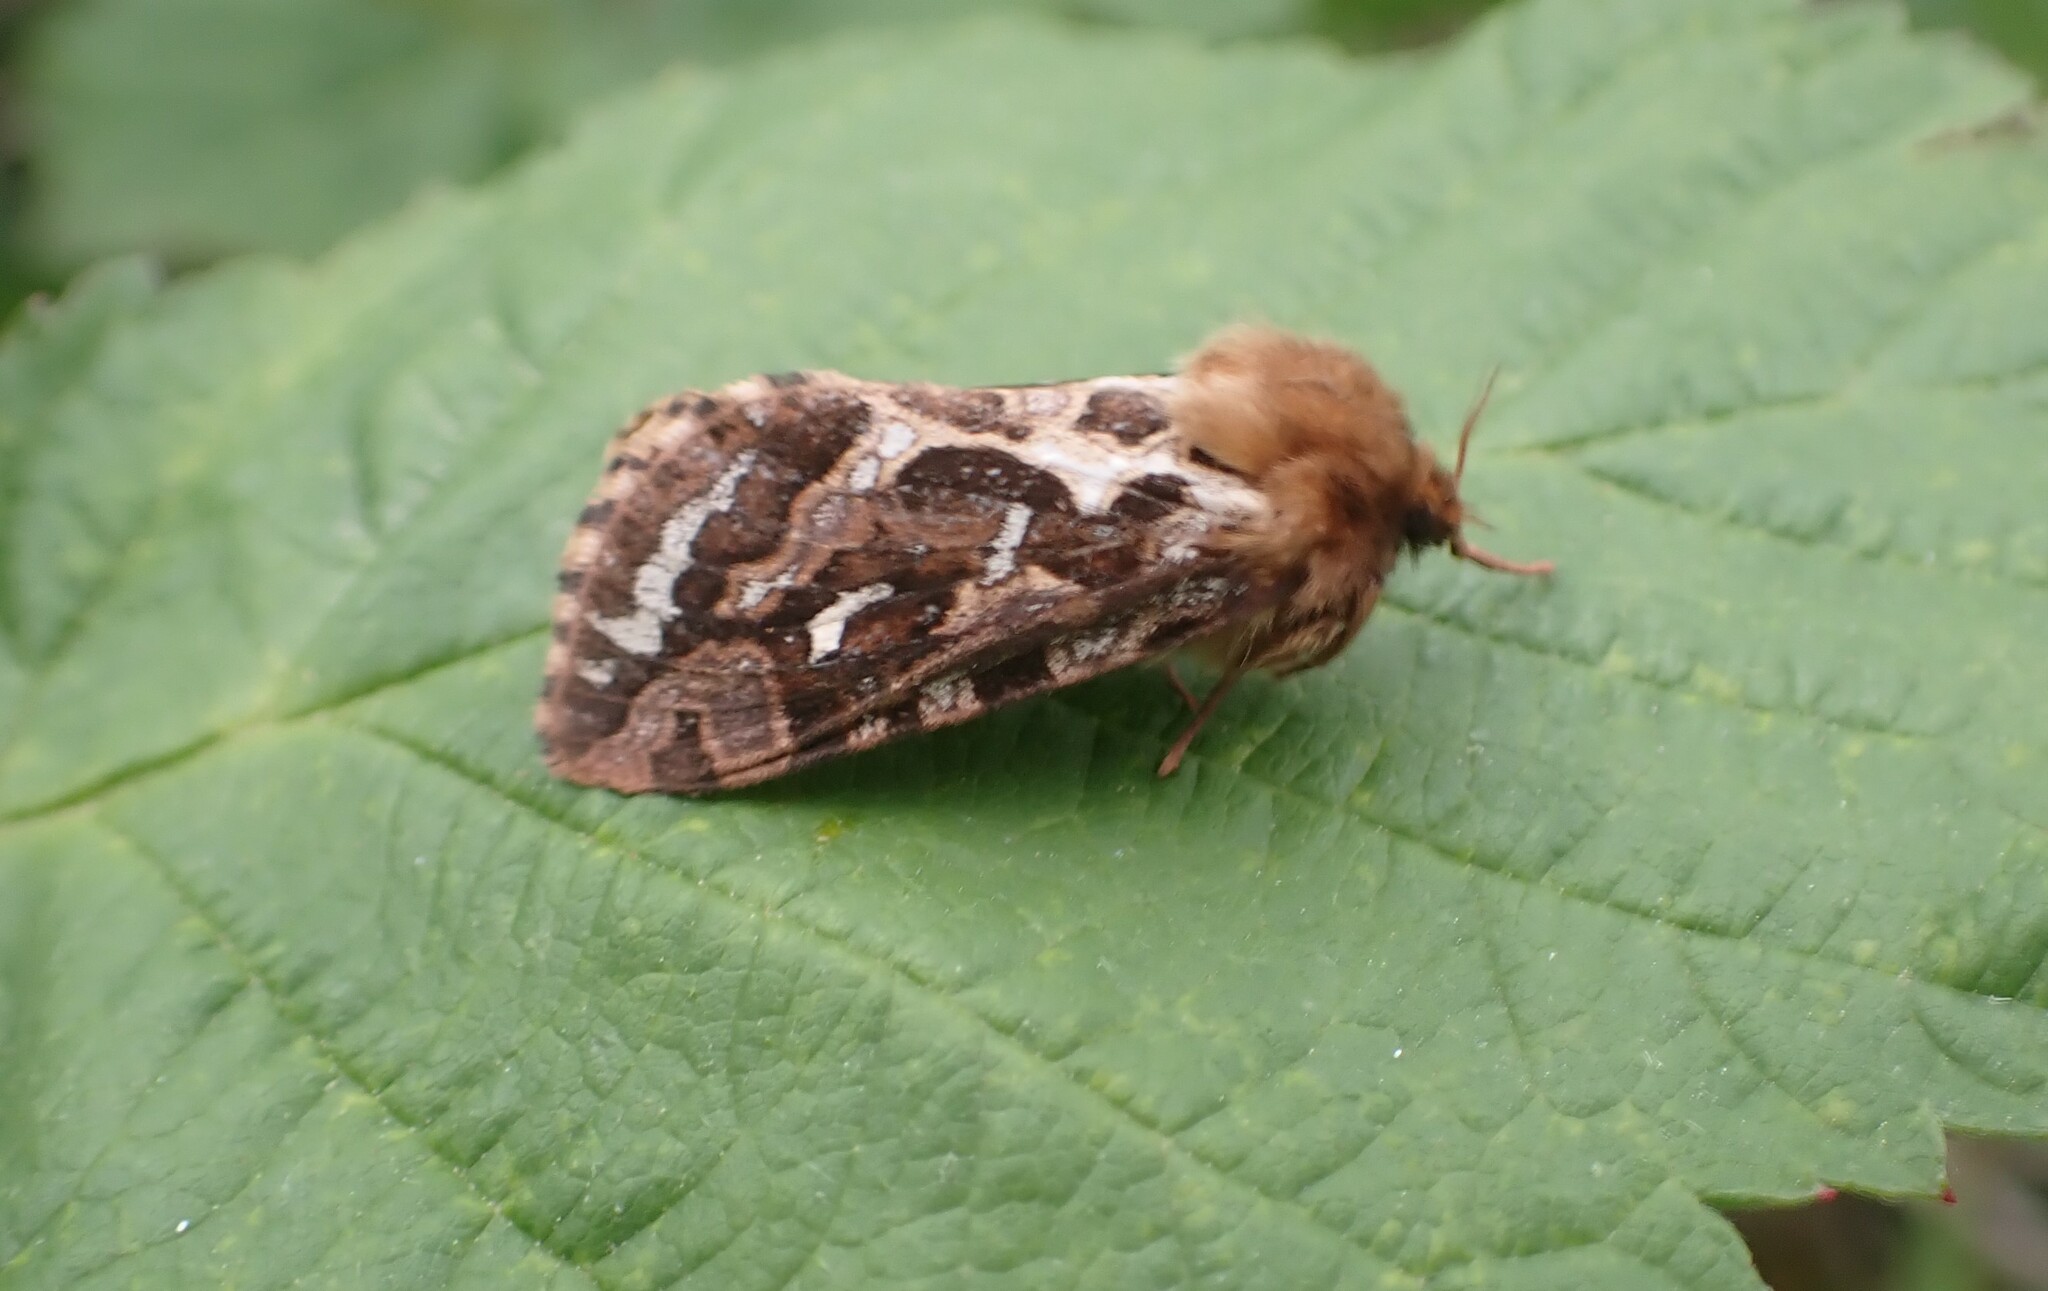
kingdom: Animalia
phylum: Arthropoda
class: Insecta
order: Lepidoptera
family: Hepialidae
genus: Korscheltellus
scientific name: Korscheltellus fusconebulosus
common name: Map-winged swift
